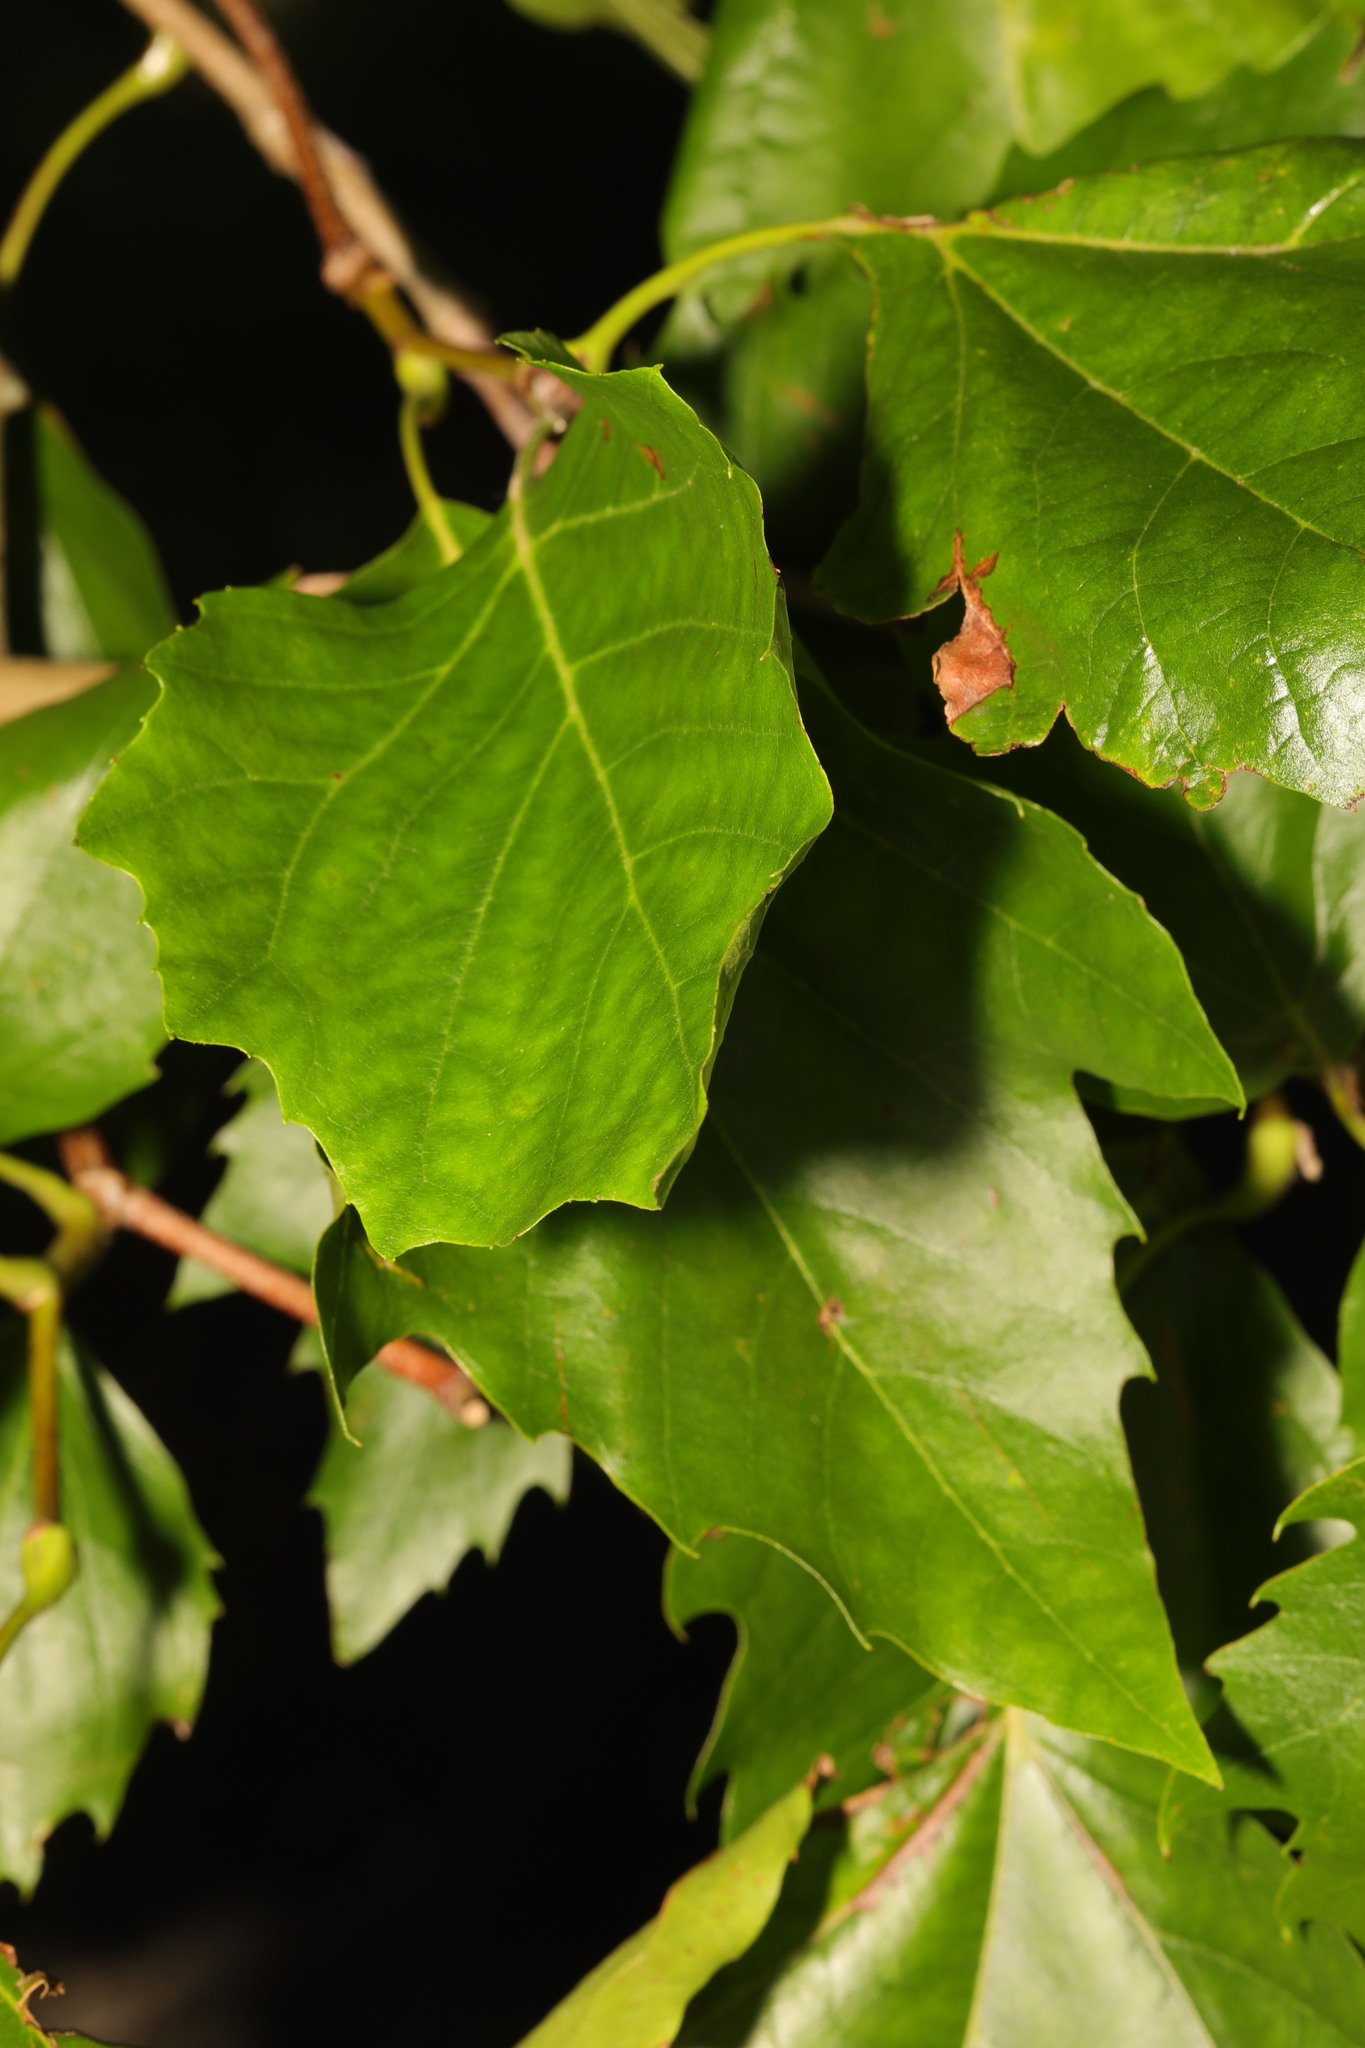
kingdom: Plantae
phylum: Tracheophyta
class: Magnoliopsida
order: Proteales
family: Platanaceae
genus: Platanus
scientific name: Platanus hispanica
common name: London plane
